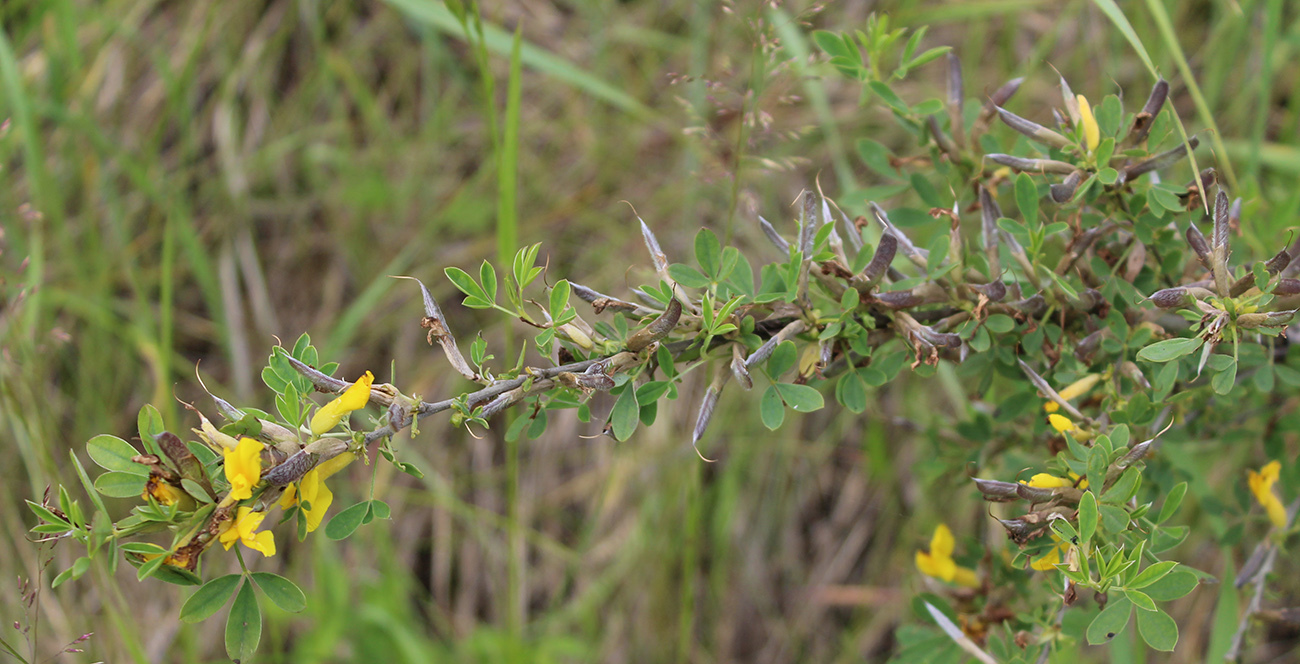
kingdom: Plantae
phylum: Tracheophyta
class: Magnoliopsida
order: Fabales
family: Fabaceae
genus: Chamaecytisus
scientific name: Chamaecytisus ruthenicus
